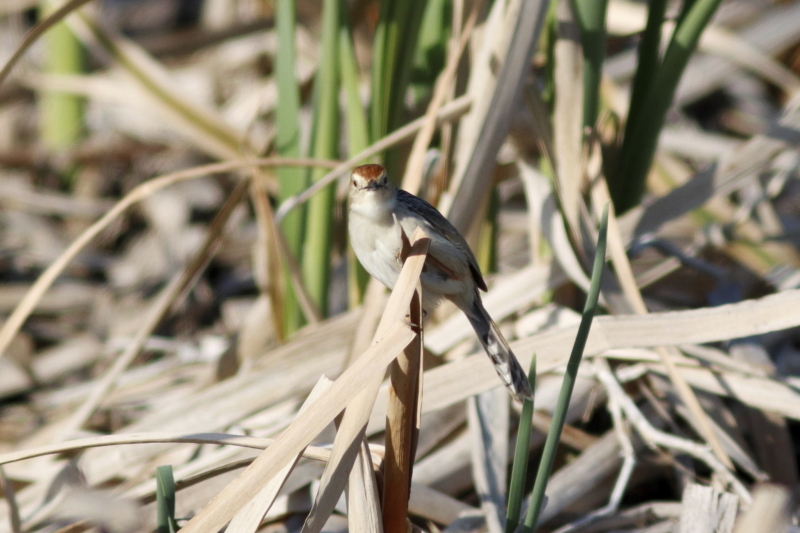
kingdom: Animalia
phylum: Chordata
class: Aves
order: Passeriformes
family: Cisticolidae
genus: Cisticola
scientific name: Cisticola tinniens
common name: Levaillant's cisticola
